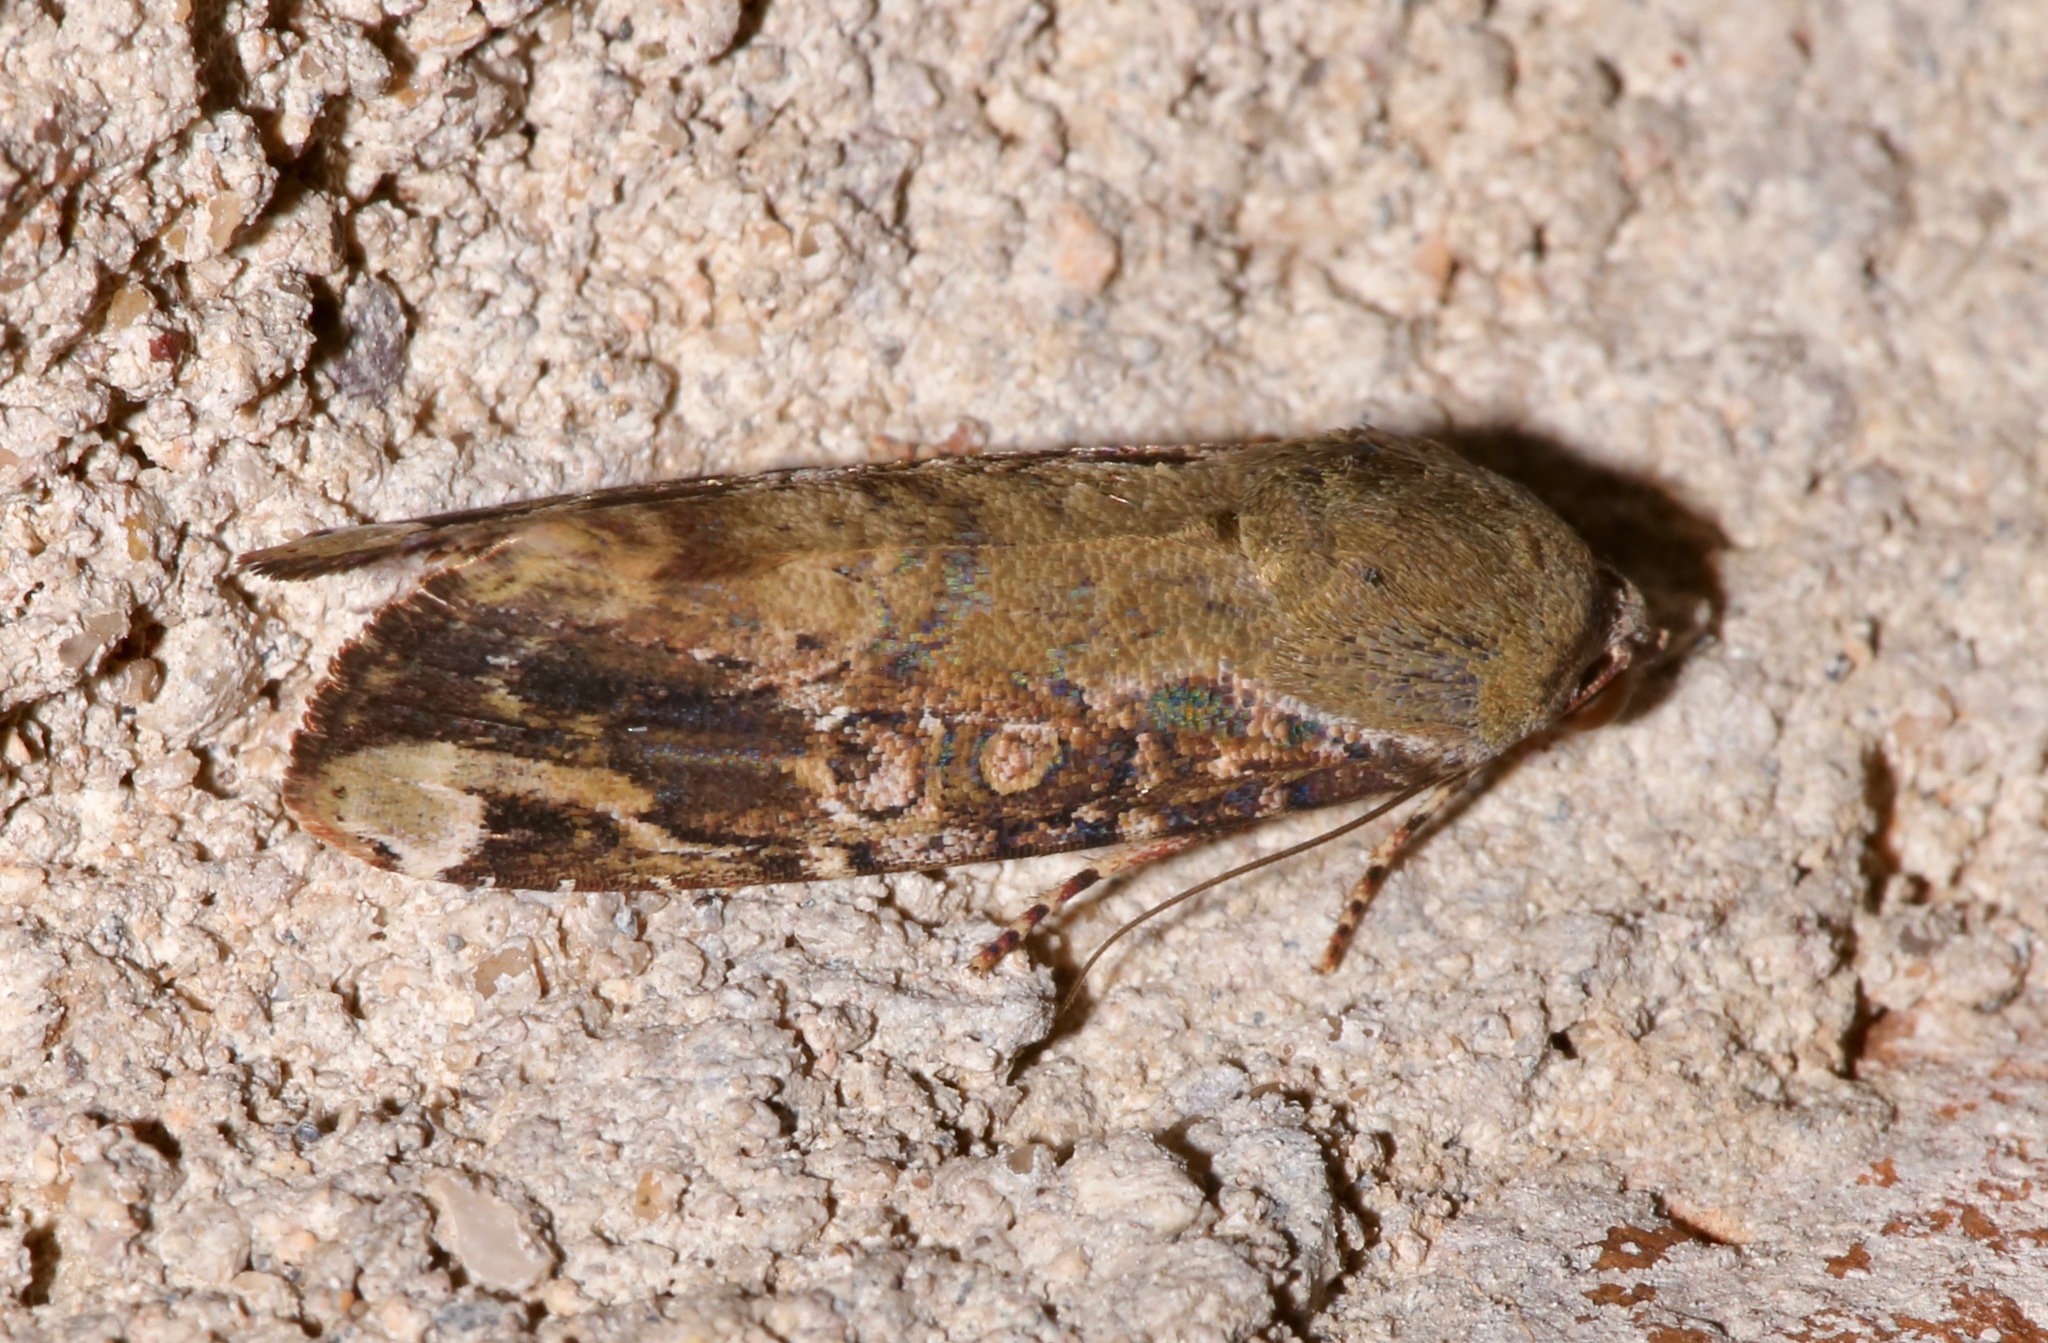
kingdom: Animalia
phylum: Arthropoda
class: Insecta
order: Lepidoptera
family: Noctuidae
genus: Magusa
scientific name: Magusa divaricata
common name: Orb narrow-winged moth
